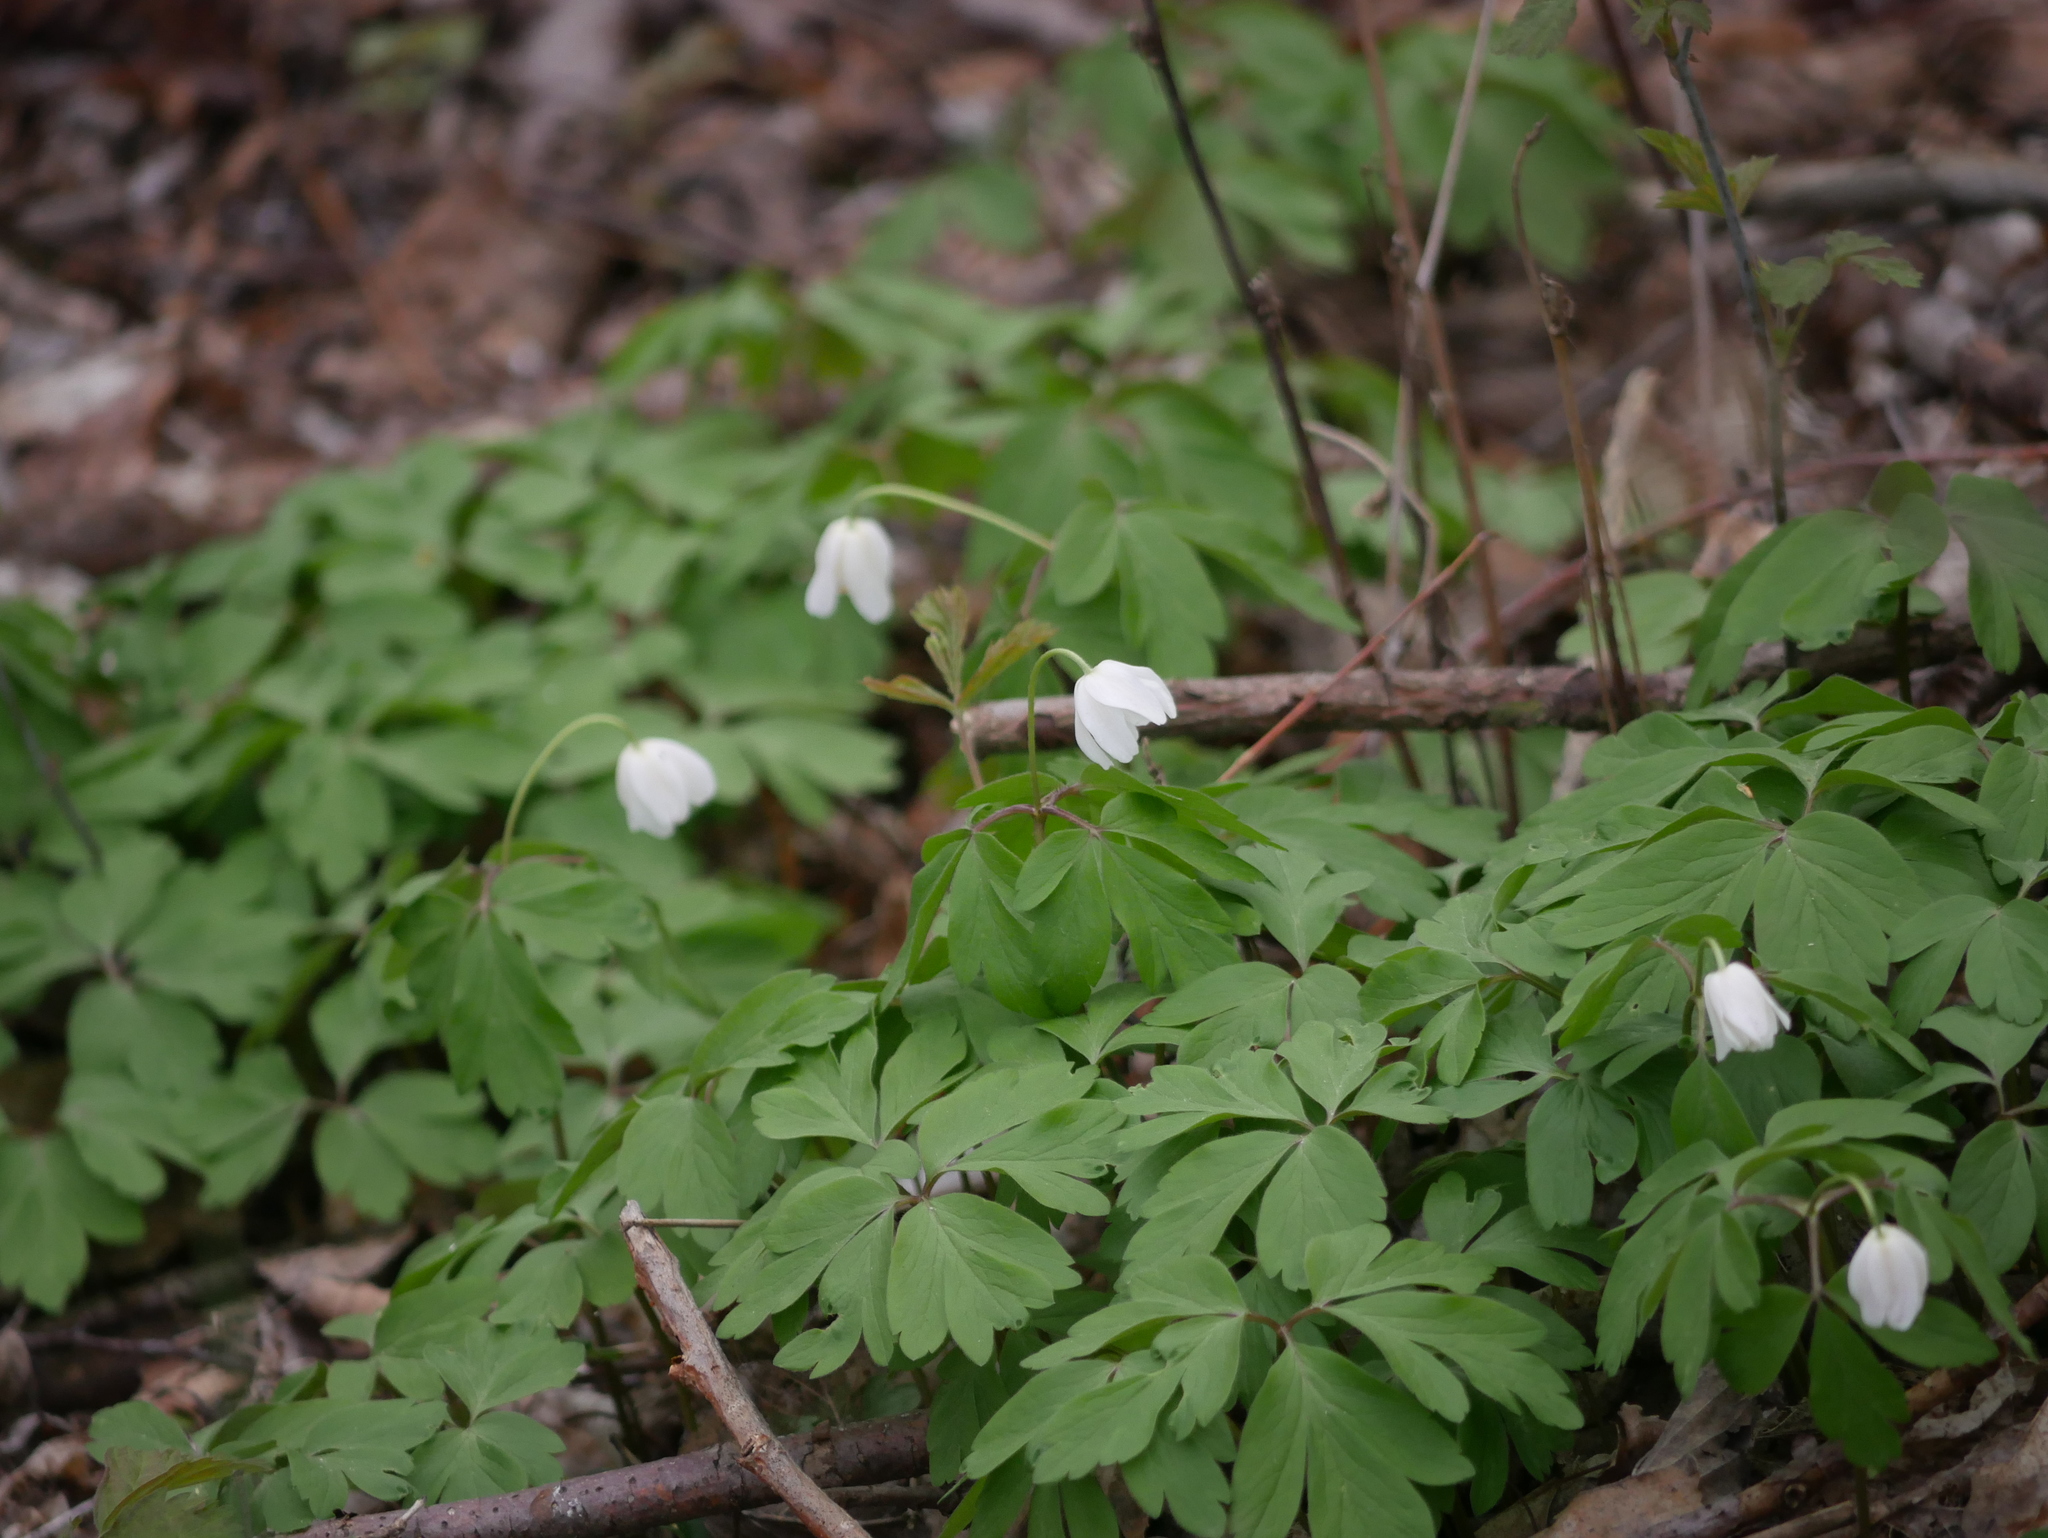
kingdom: Plantae
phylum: Tracheophyta
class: Magnoliopsida
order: Ranunculales
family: Ranunculaceae
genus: Anemone
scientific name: Anemone nemorosa
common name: Wood anemone
